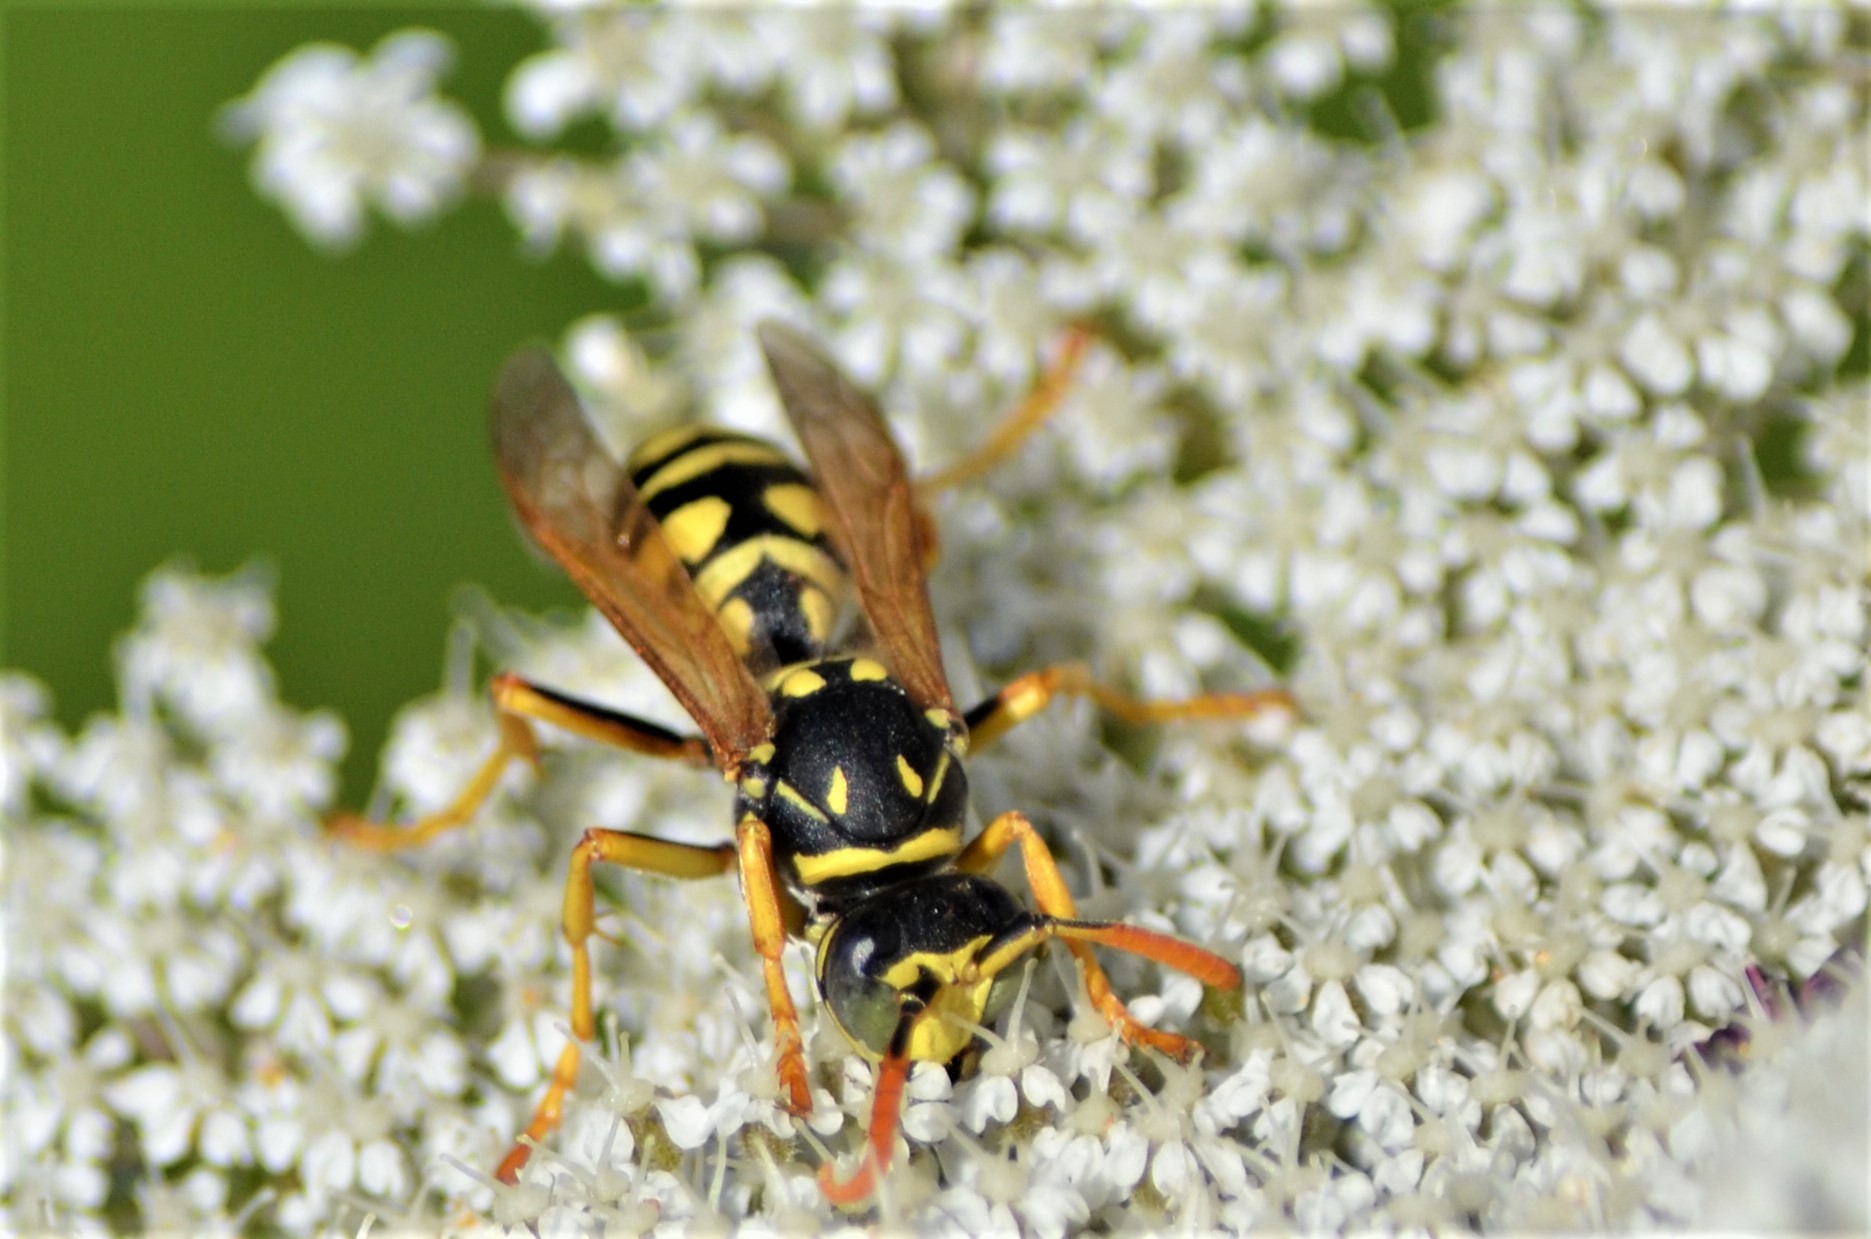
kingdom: Animalia
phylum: Arthropoda
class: Insecta
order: Hymenoptera
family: Eumenidae
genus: Polistes
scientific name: Polistes dominula
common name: Paper wasp
